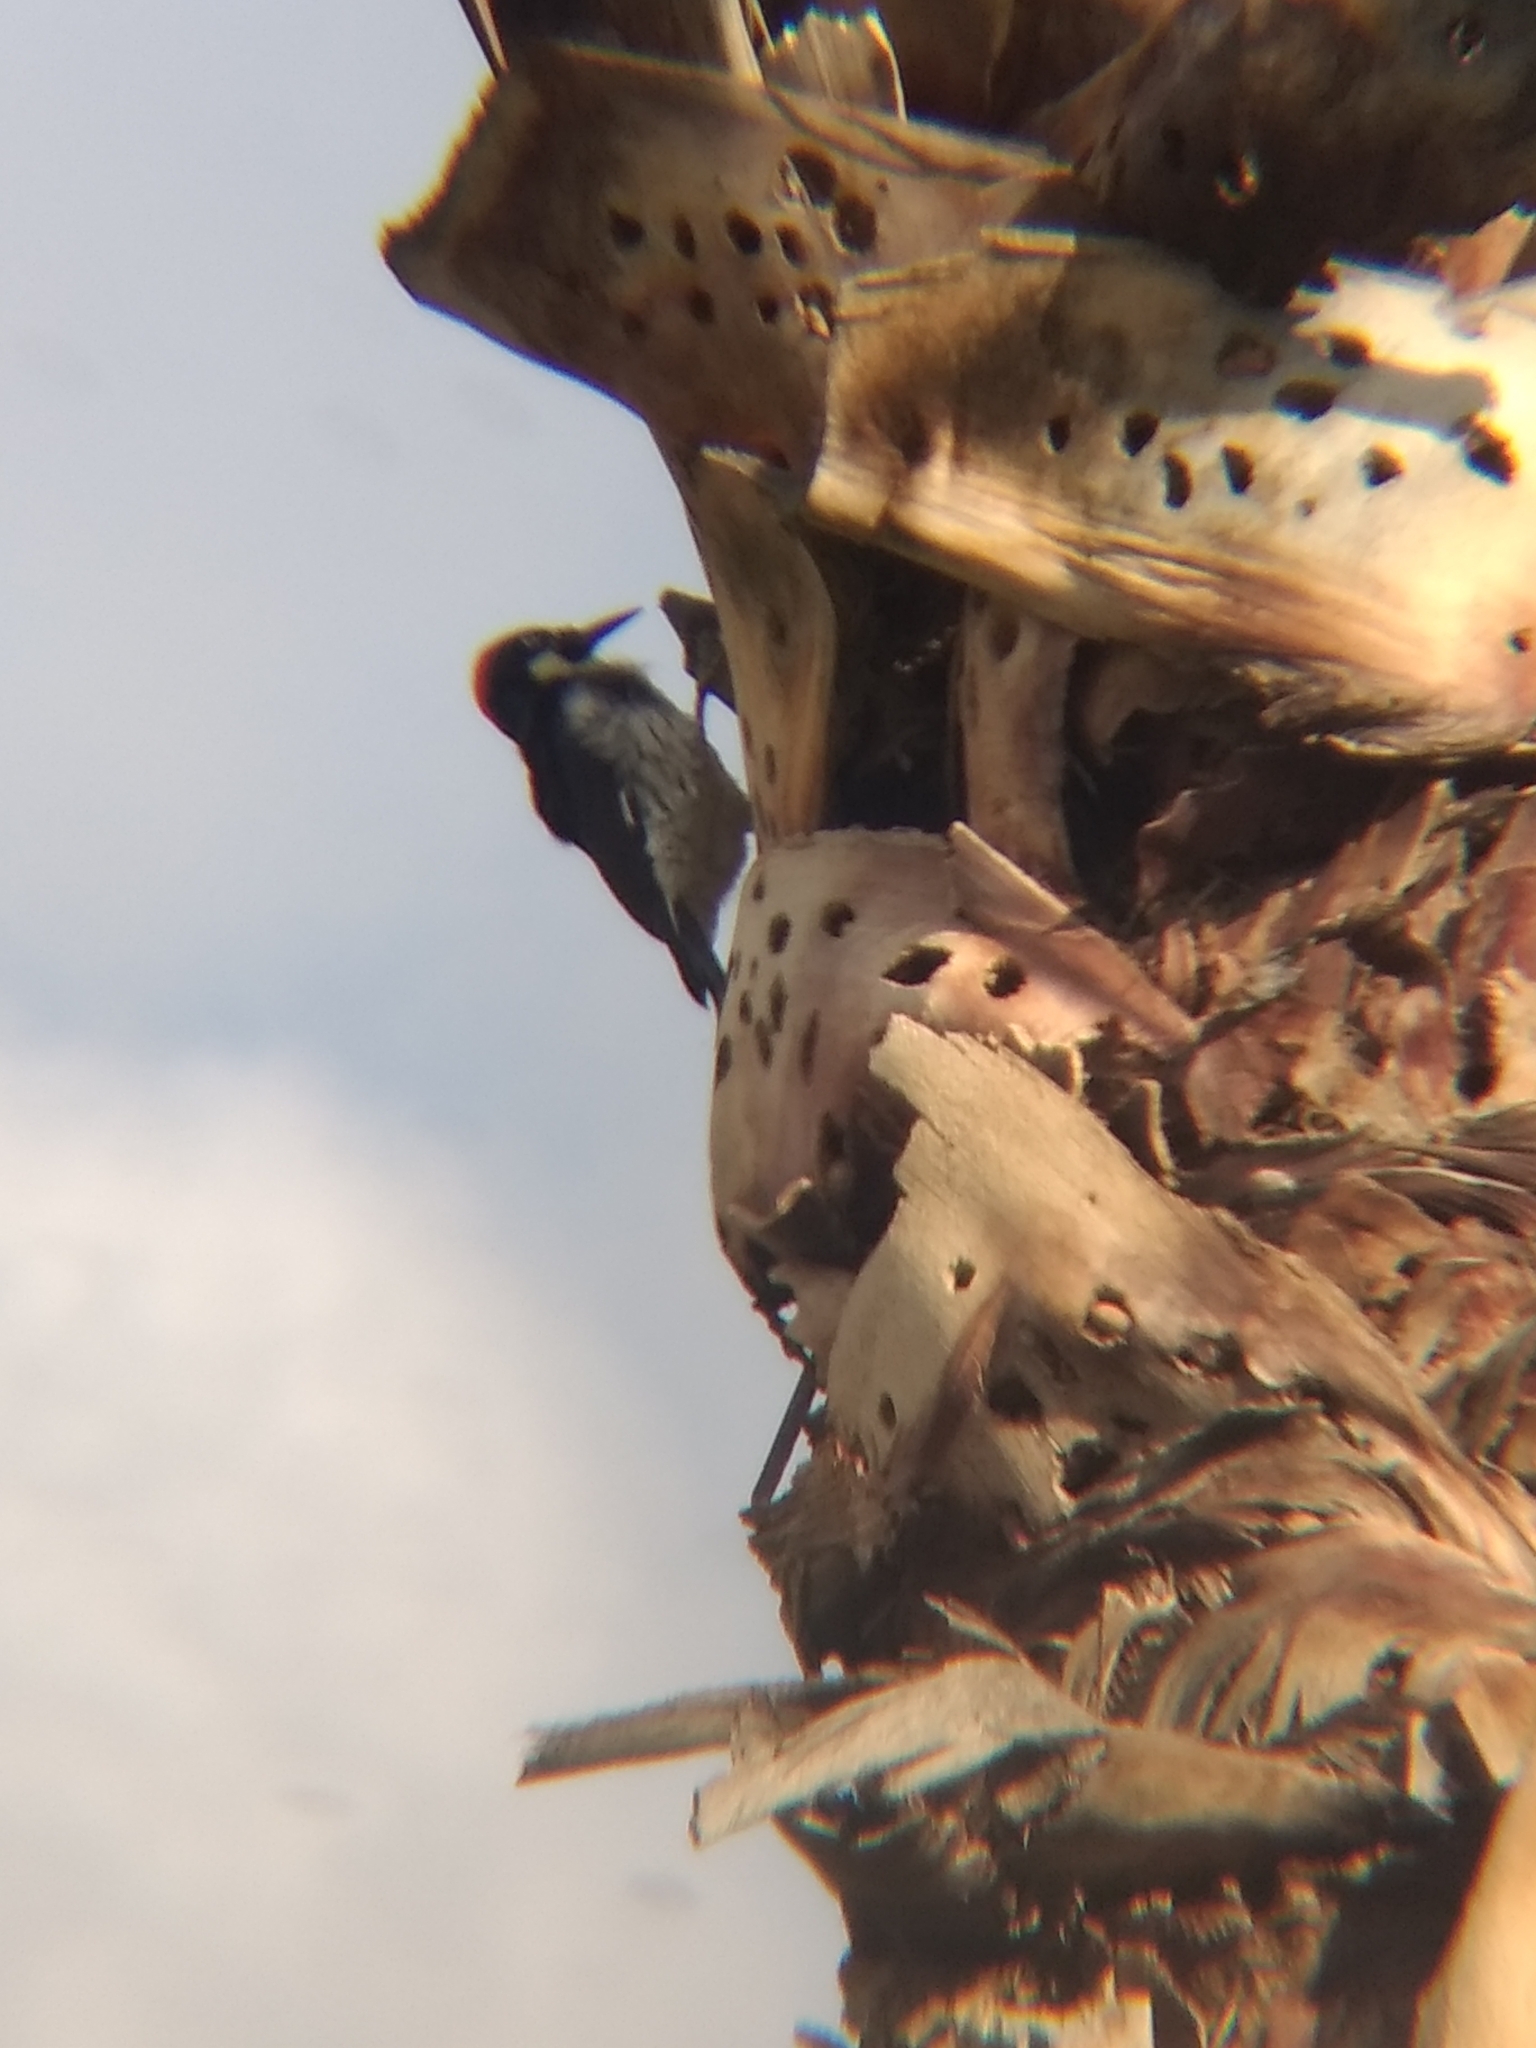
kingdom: Animalia
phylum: Chordata
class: Aves
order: Piciformes
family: Picidae
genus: Melanerpes
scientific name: Melanerpes formicivorus
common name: Acorn woodpecker
